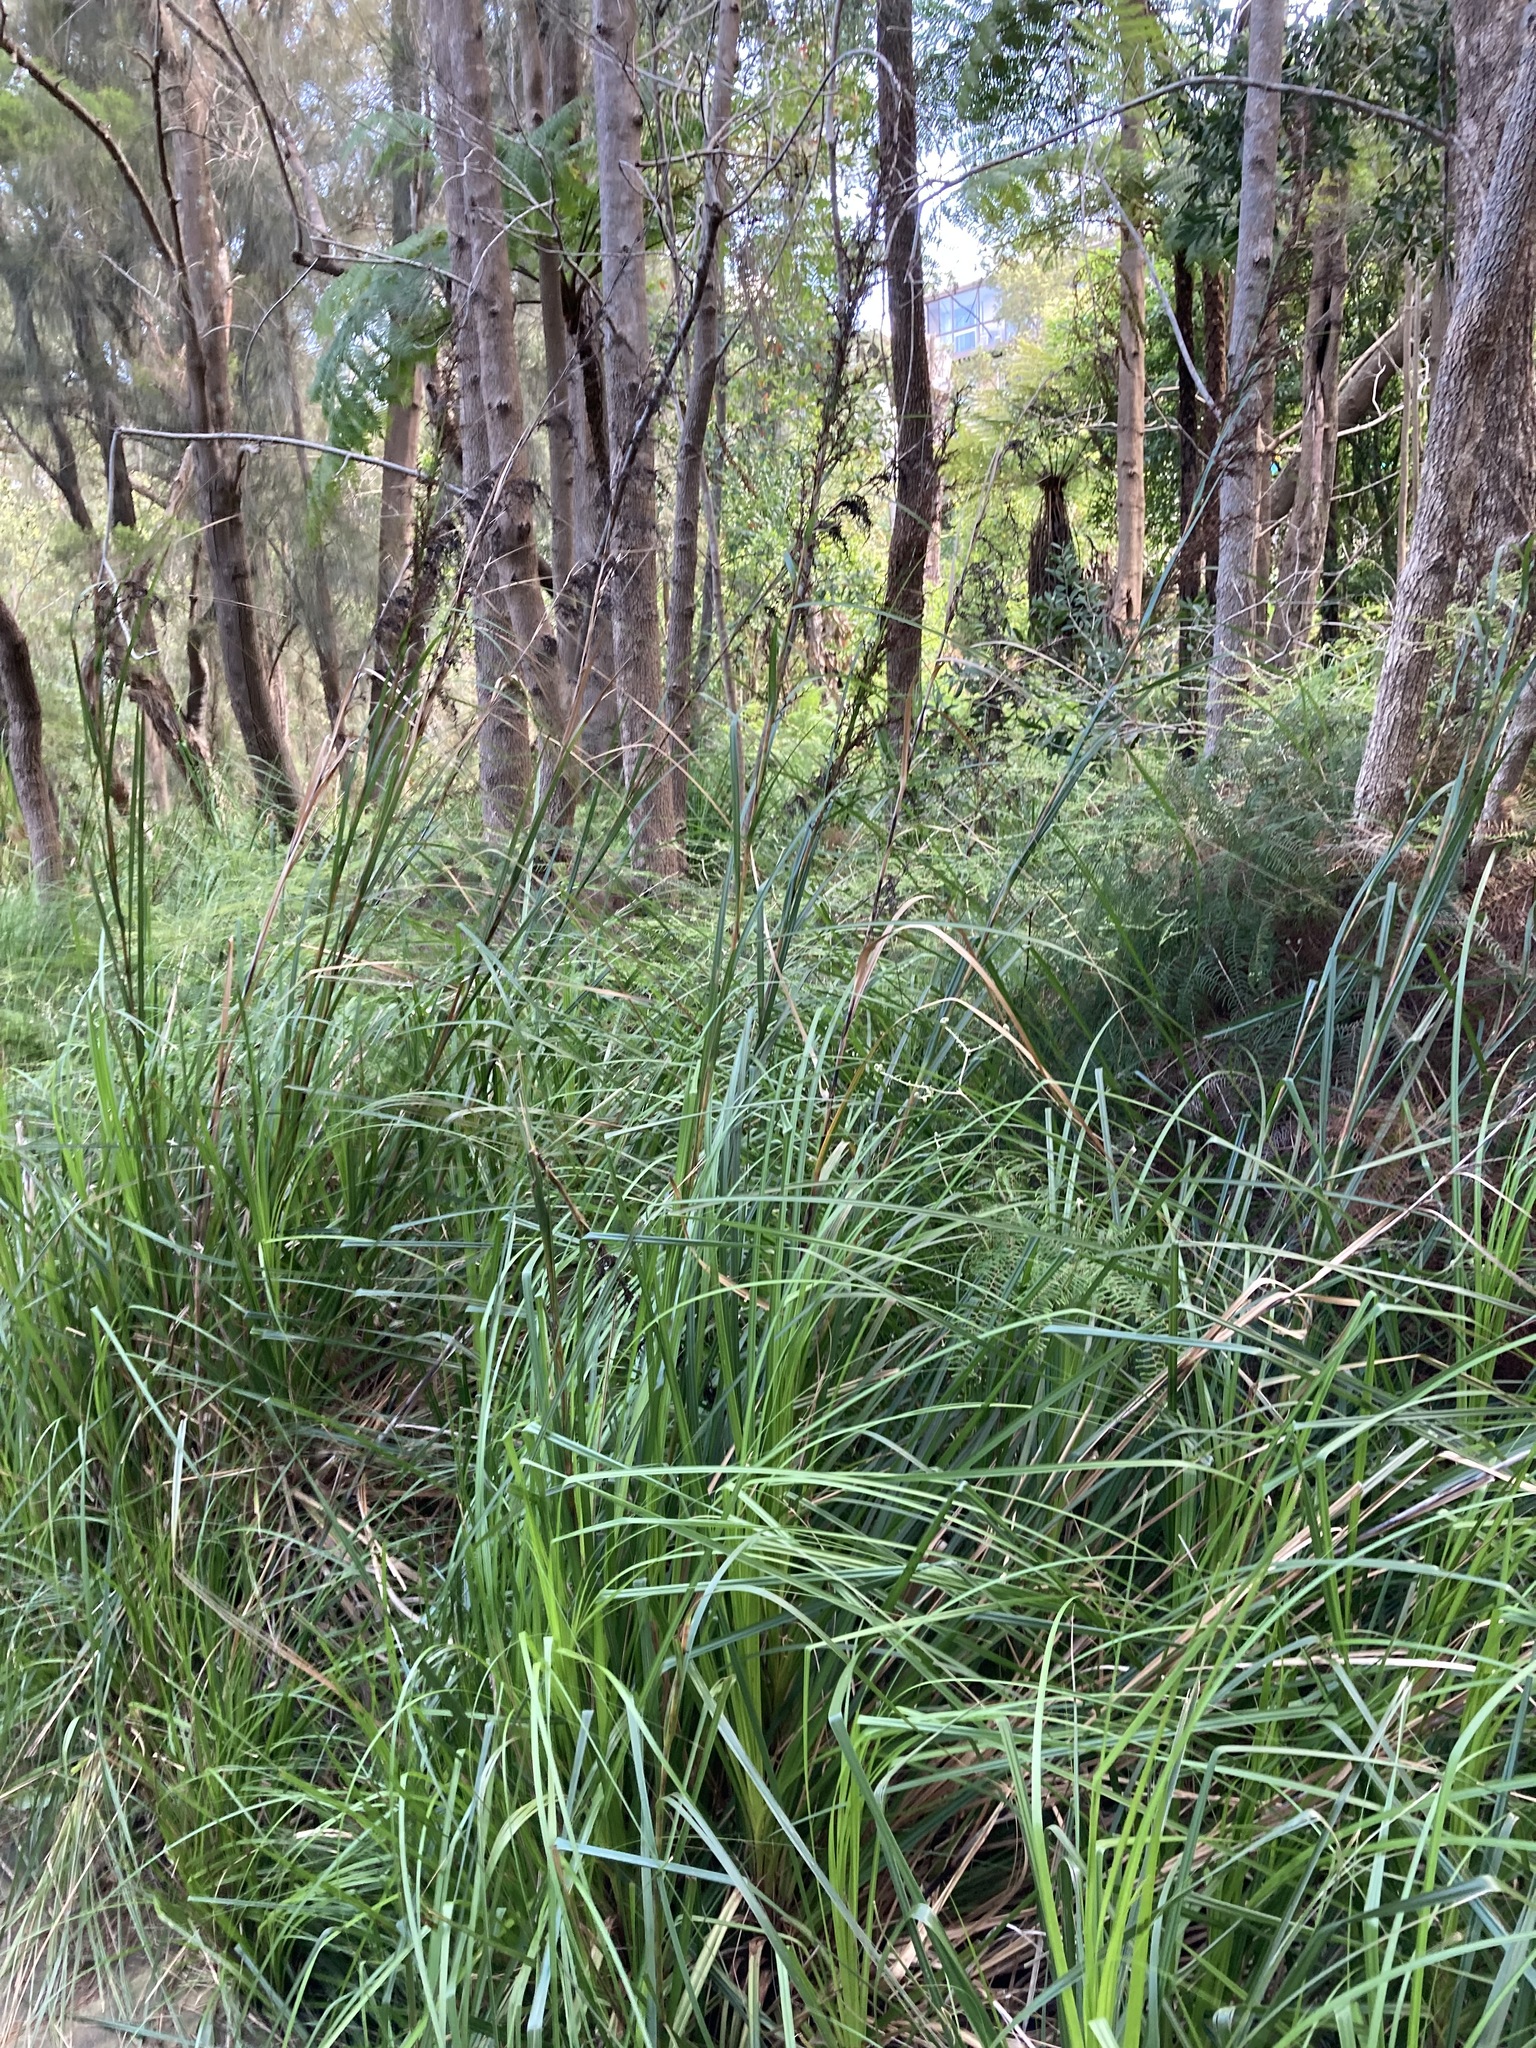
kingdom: Plantae
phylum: Tracheophyta
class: Liliopsida
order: Poales
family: Cyperaceae
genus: Gahnia
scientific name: Gahnia clarkei
